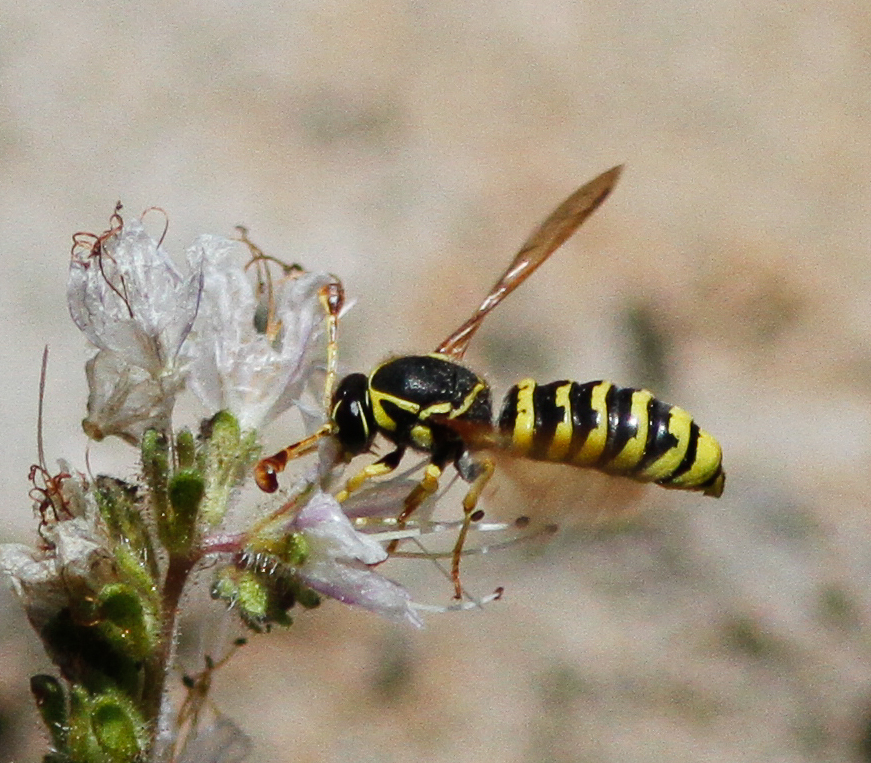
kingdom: Animalia
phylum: Arthropoda
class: Insecta
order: Hymenoptera
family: Masaridae
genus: Pseudomasaris
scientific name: Pseudomasaris edwardsi
